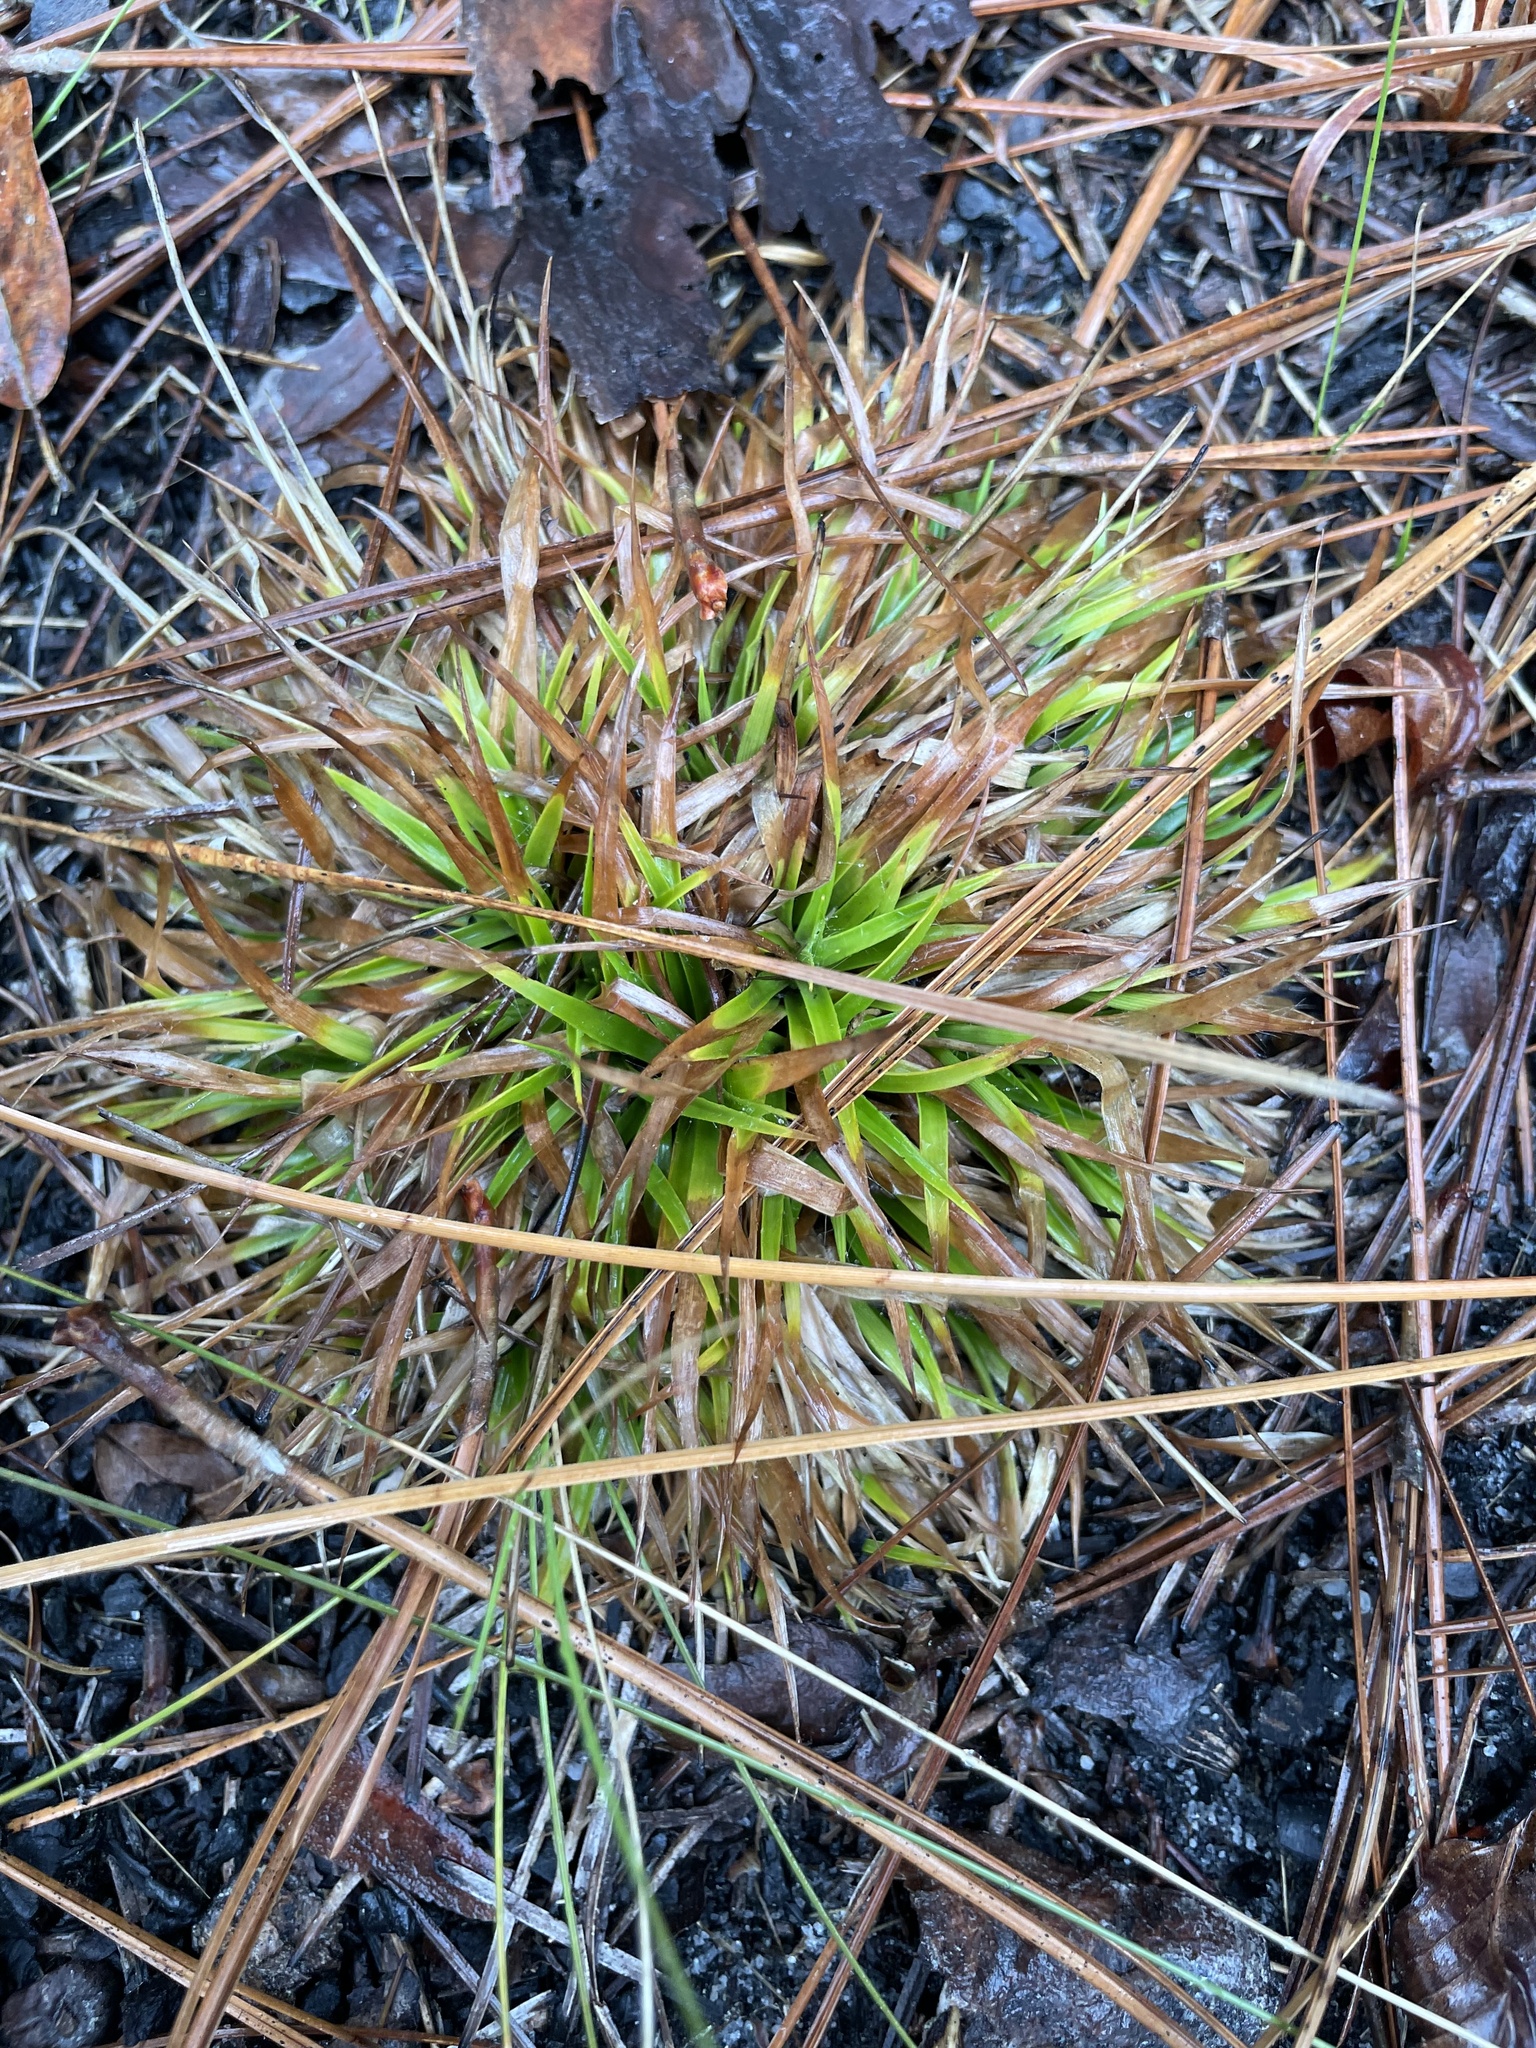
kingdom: Plantae
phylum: Tracheophyta
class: Liliopsida
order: Poales
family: Eriocaulaceae
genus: Paepalanthus
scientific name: Paepalanthus anceps
